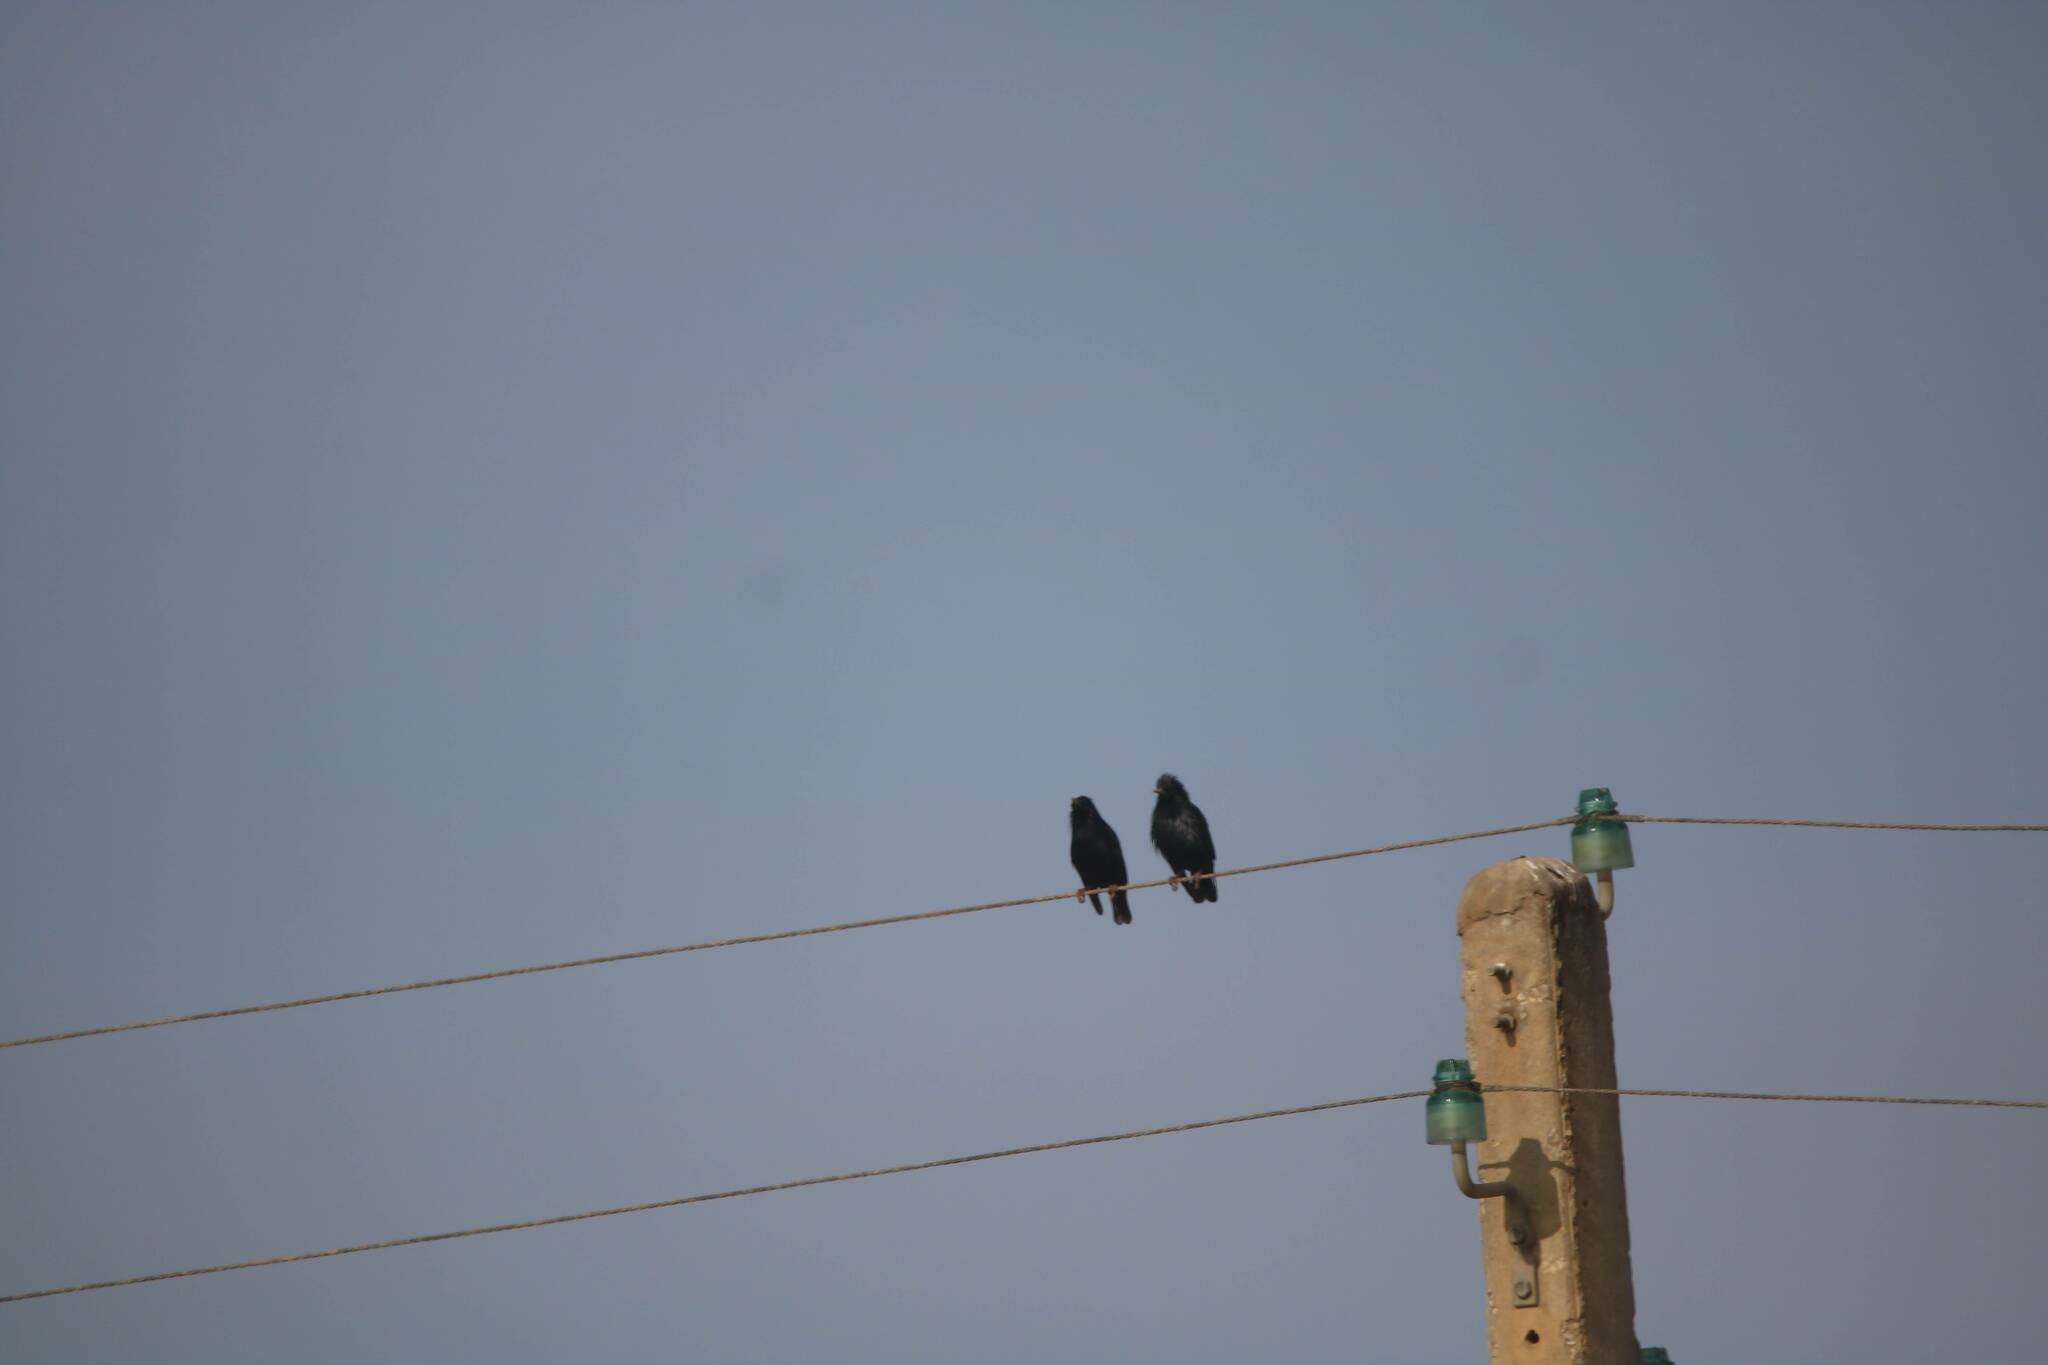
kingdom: Animalia
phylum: Chordata
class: Aves
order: Passeriformes
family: Sturnidae
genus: Sturnus
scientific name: Sturnus unicolor
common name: Spotless starling
